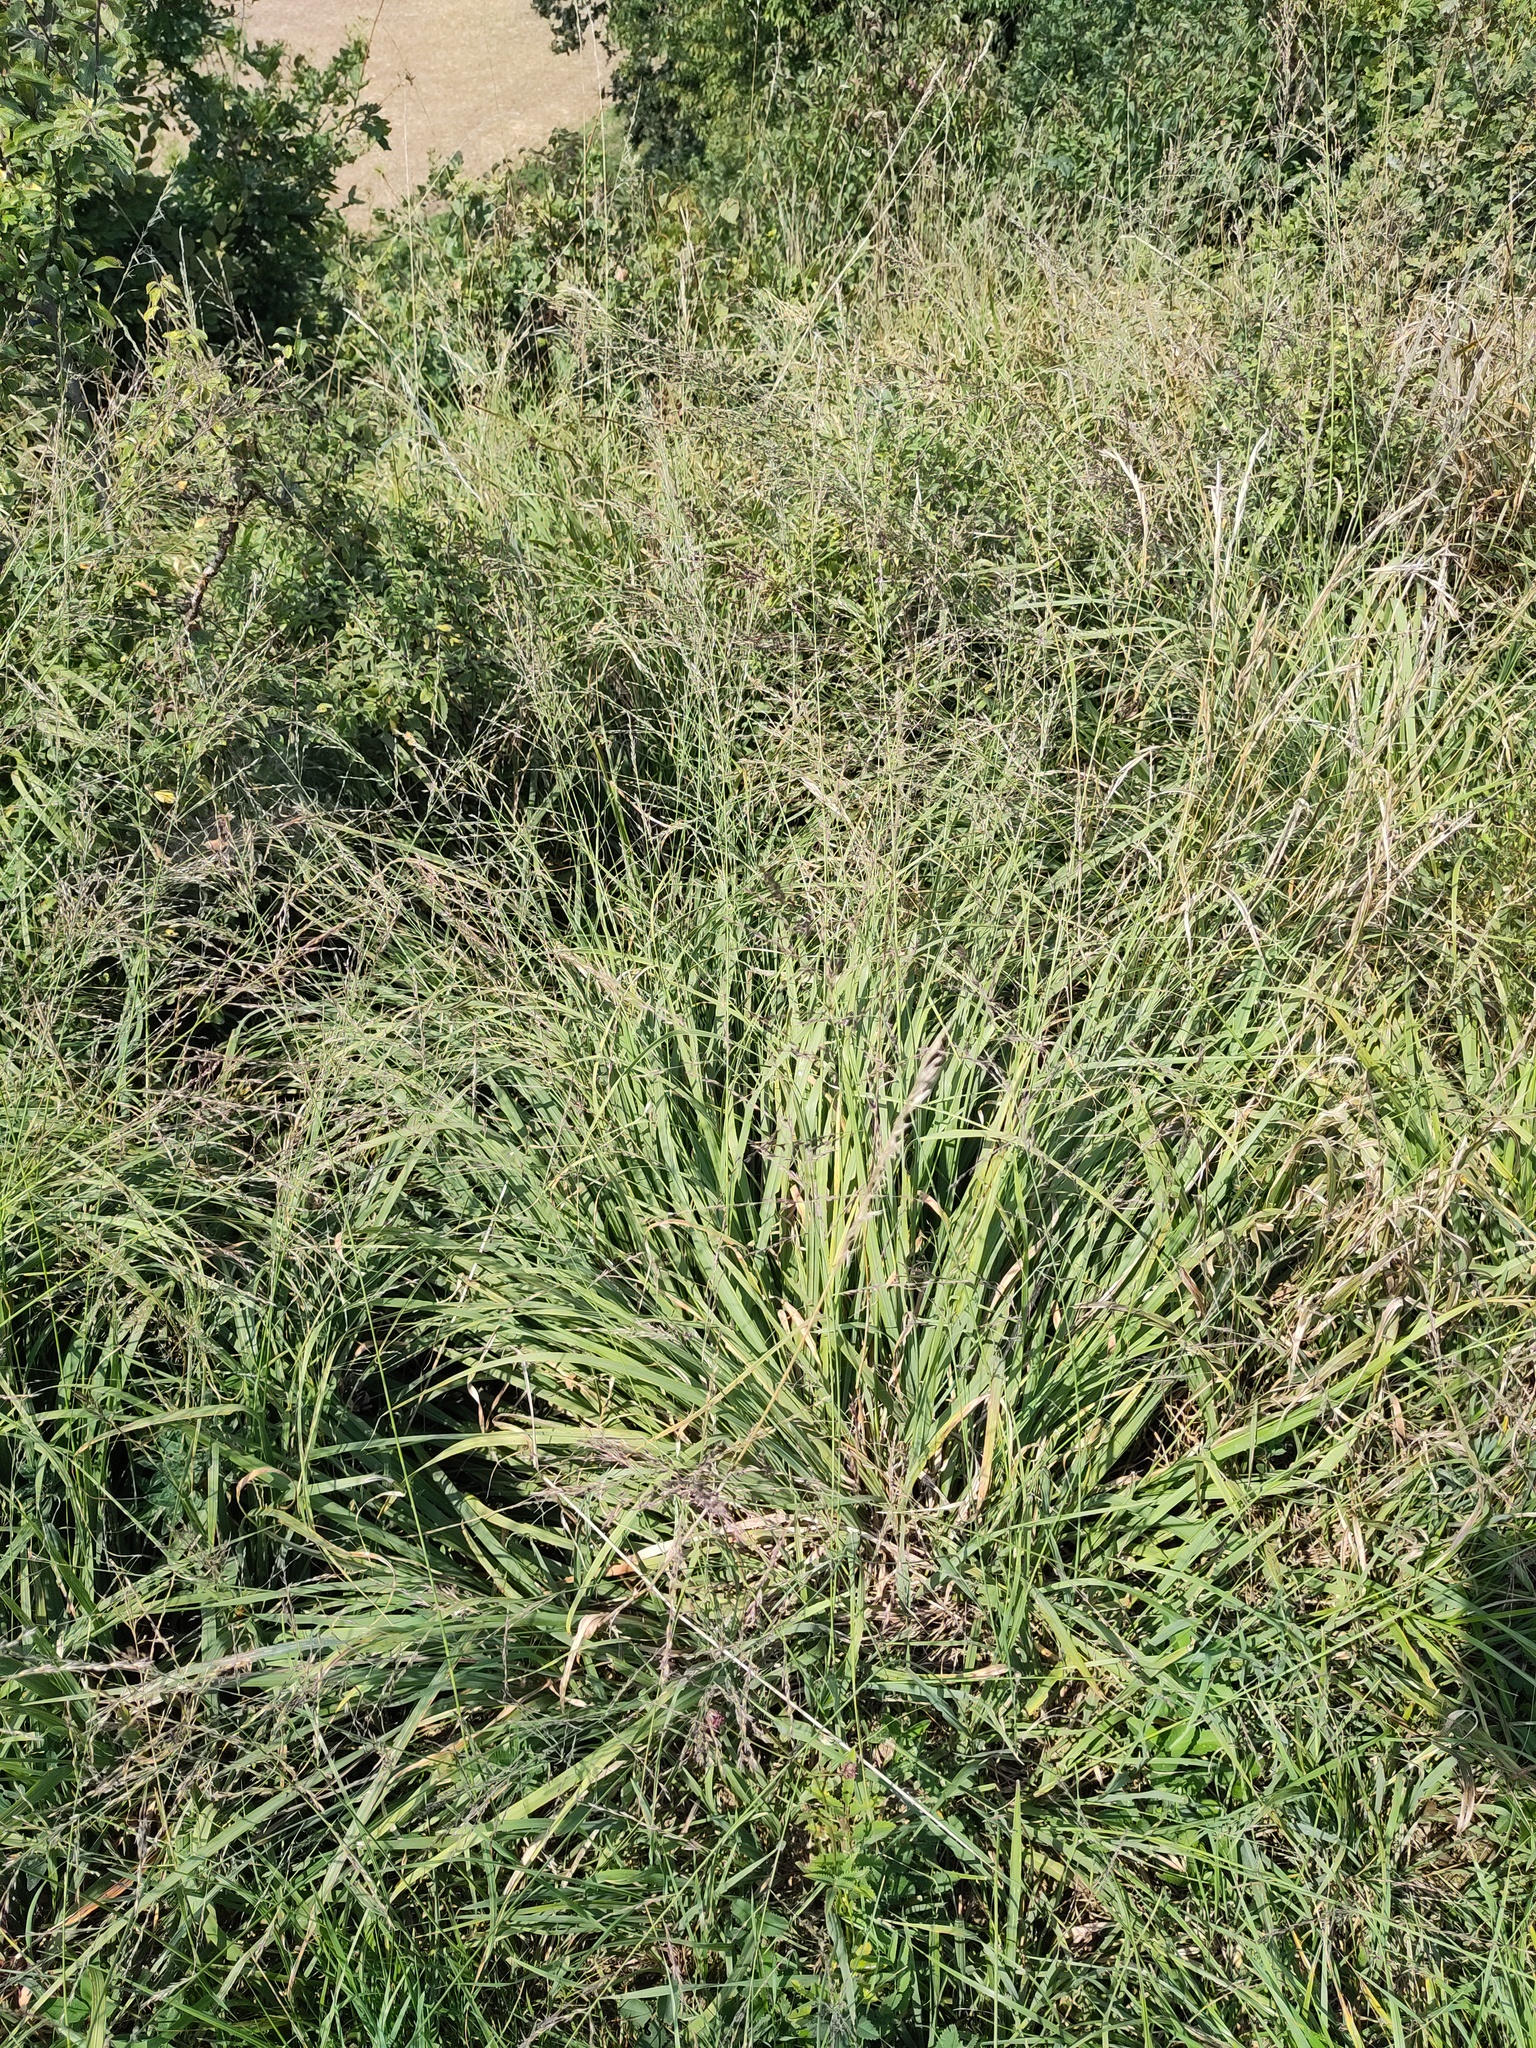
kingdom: Plantae
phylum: Tracheophyta
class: Liliopsida
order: Poales
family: Poaceae
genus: Molinia
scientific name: Molinia caerulea
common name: Purple moor-grass
